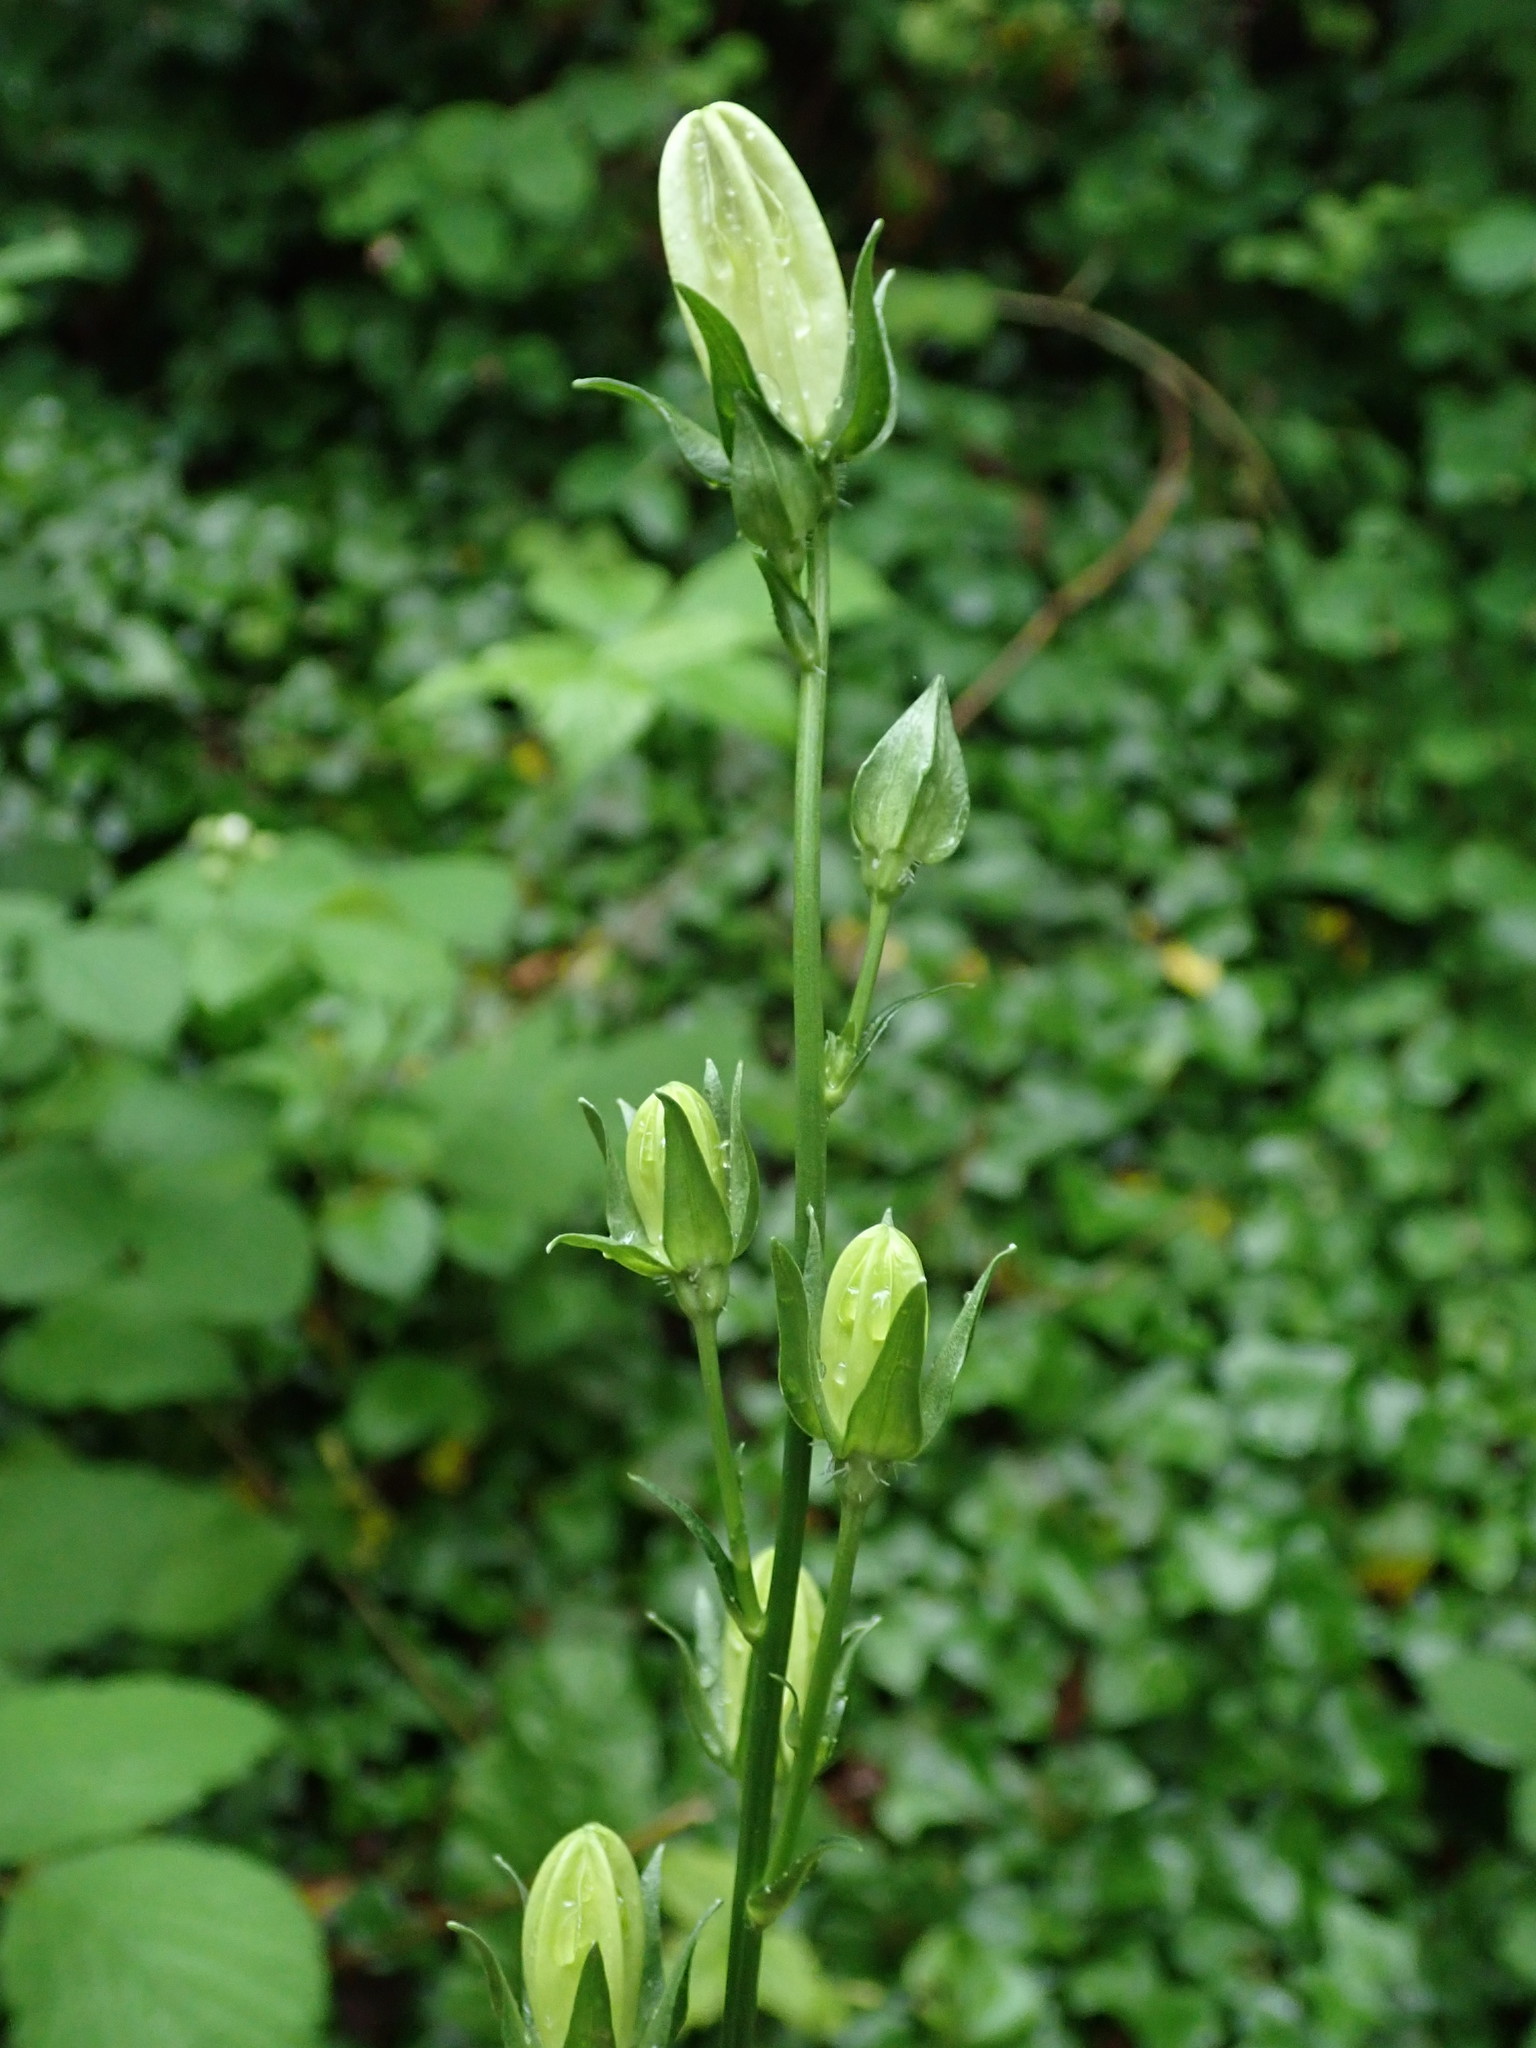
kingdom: Plantae
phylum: Tracheophyta
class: Magnoliopsida
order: Asterales
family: Campanulaceae
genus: Campanula
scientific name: Campanula persicifolia
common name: Peach-leaved bellflower
